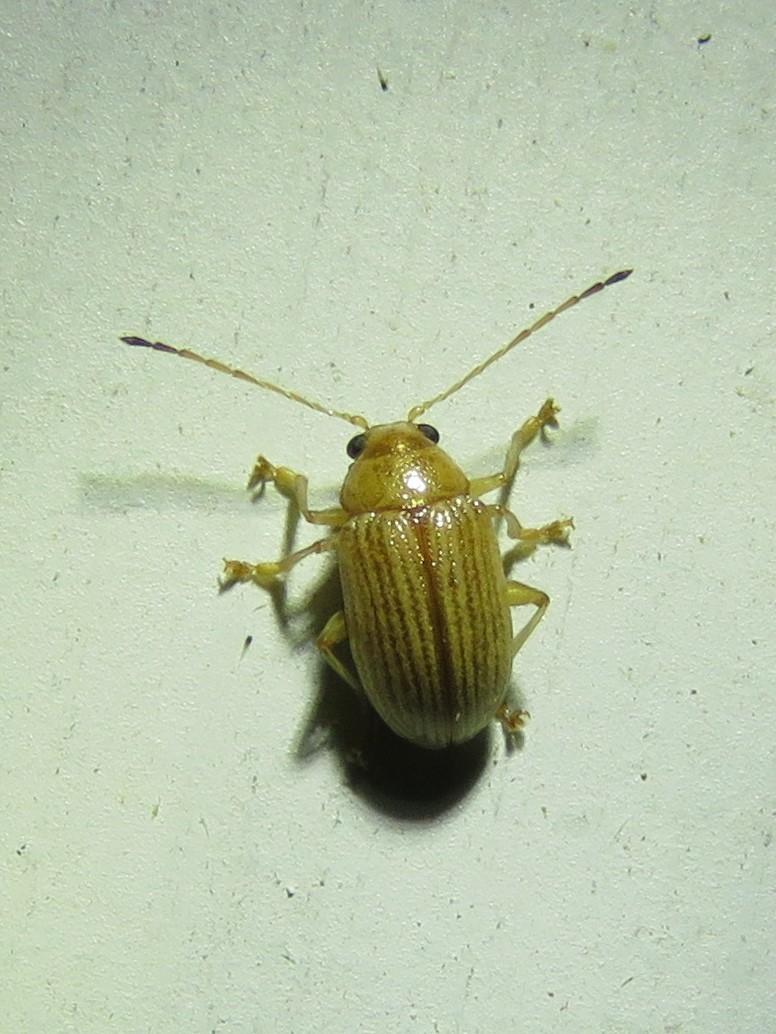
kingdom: Animalia
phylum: Arthropoda
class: Insecta
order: Coleoptera
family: Chrysomelidae
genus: Colaspis
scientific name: Colaspis brunnea
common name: Grape colaspis
